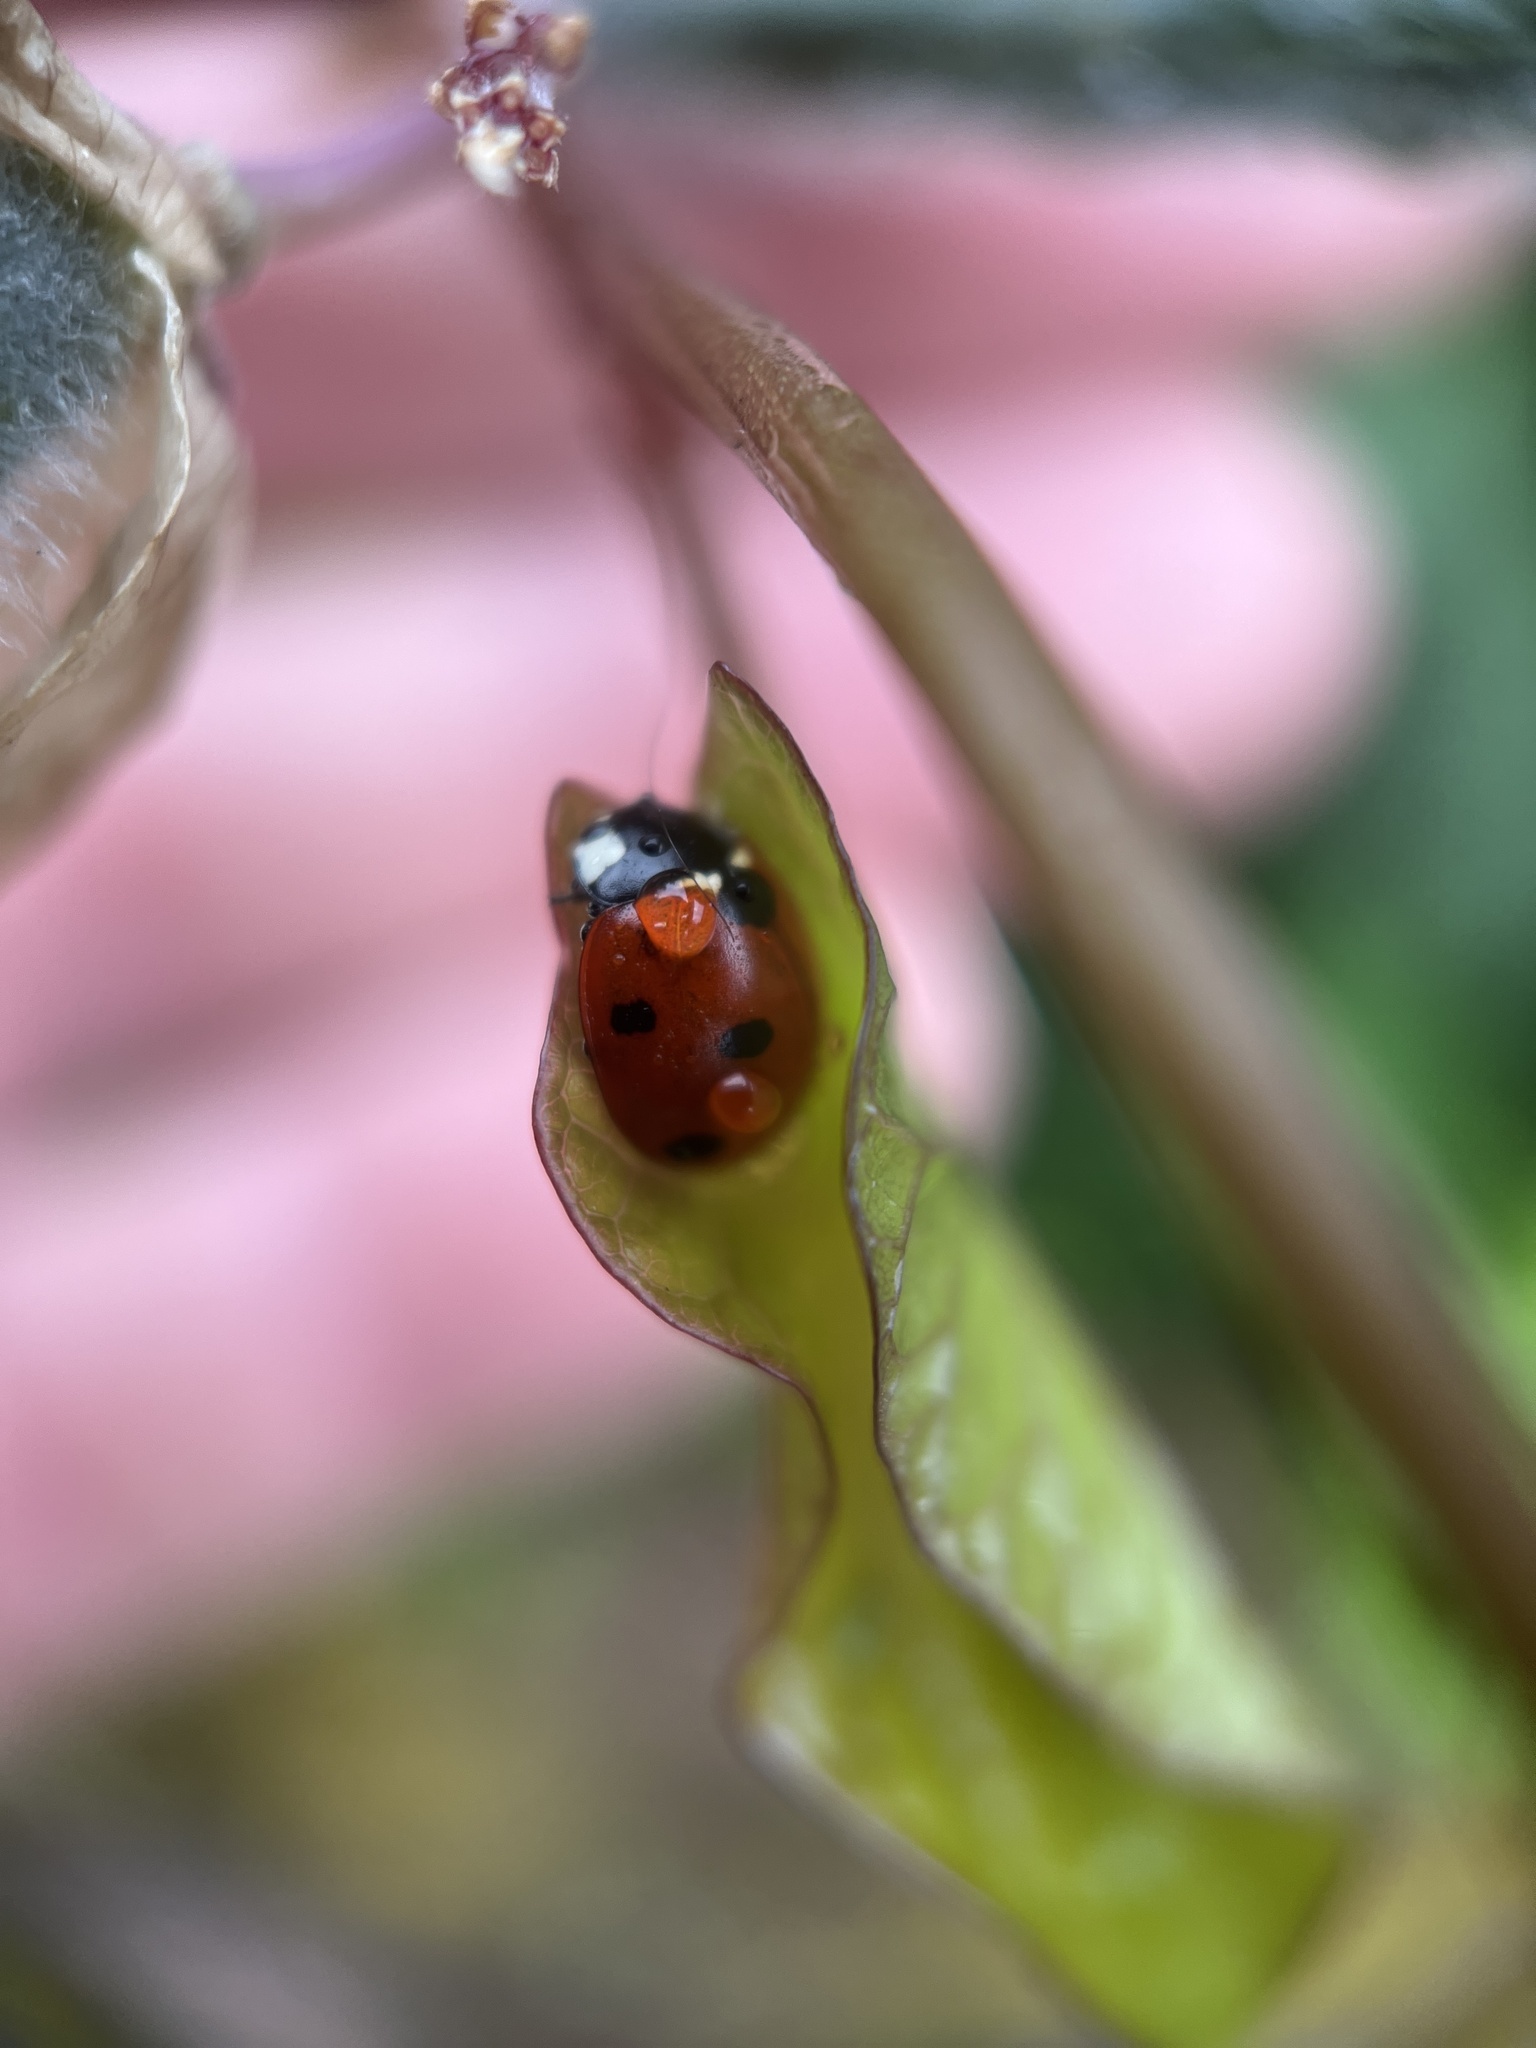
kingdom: Animalia
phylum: Arthropoda
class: Insecta
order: Coleoptera
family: Coccinellidae
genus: Coccinella
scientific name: Coccinella septempunctata
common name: Sevenspotted lady beetle
